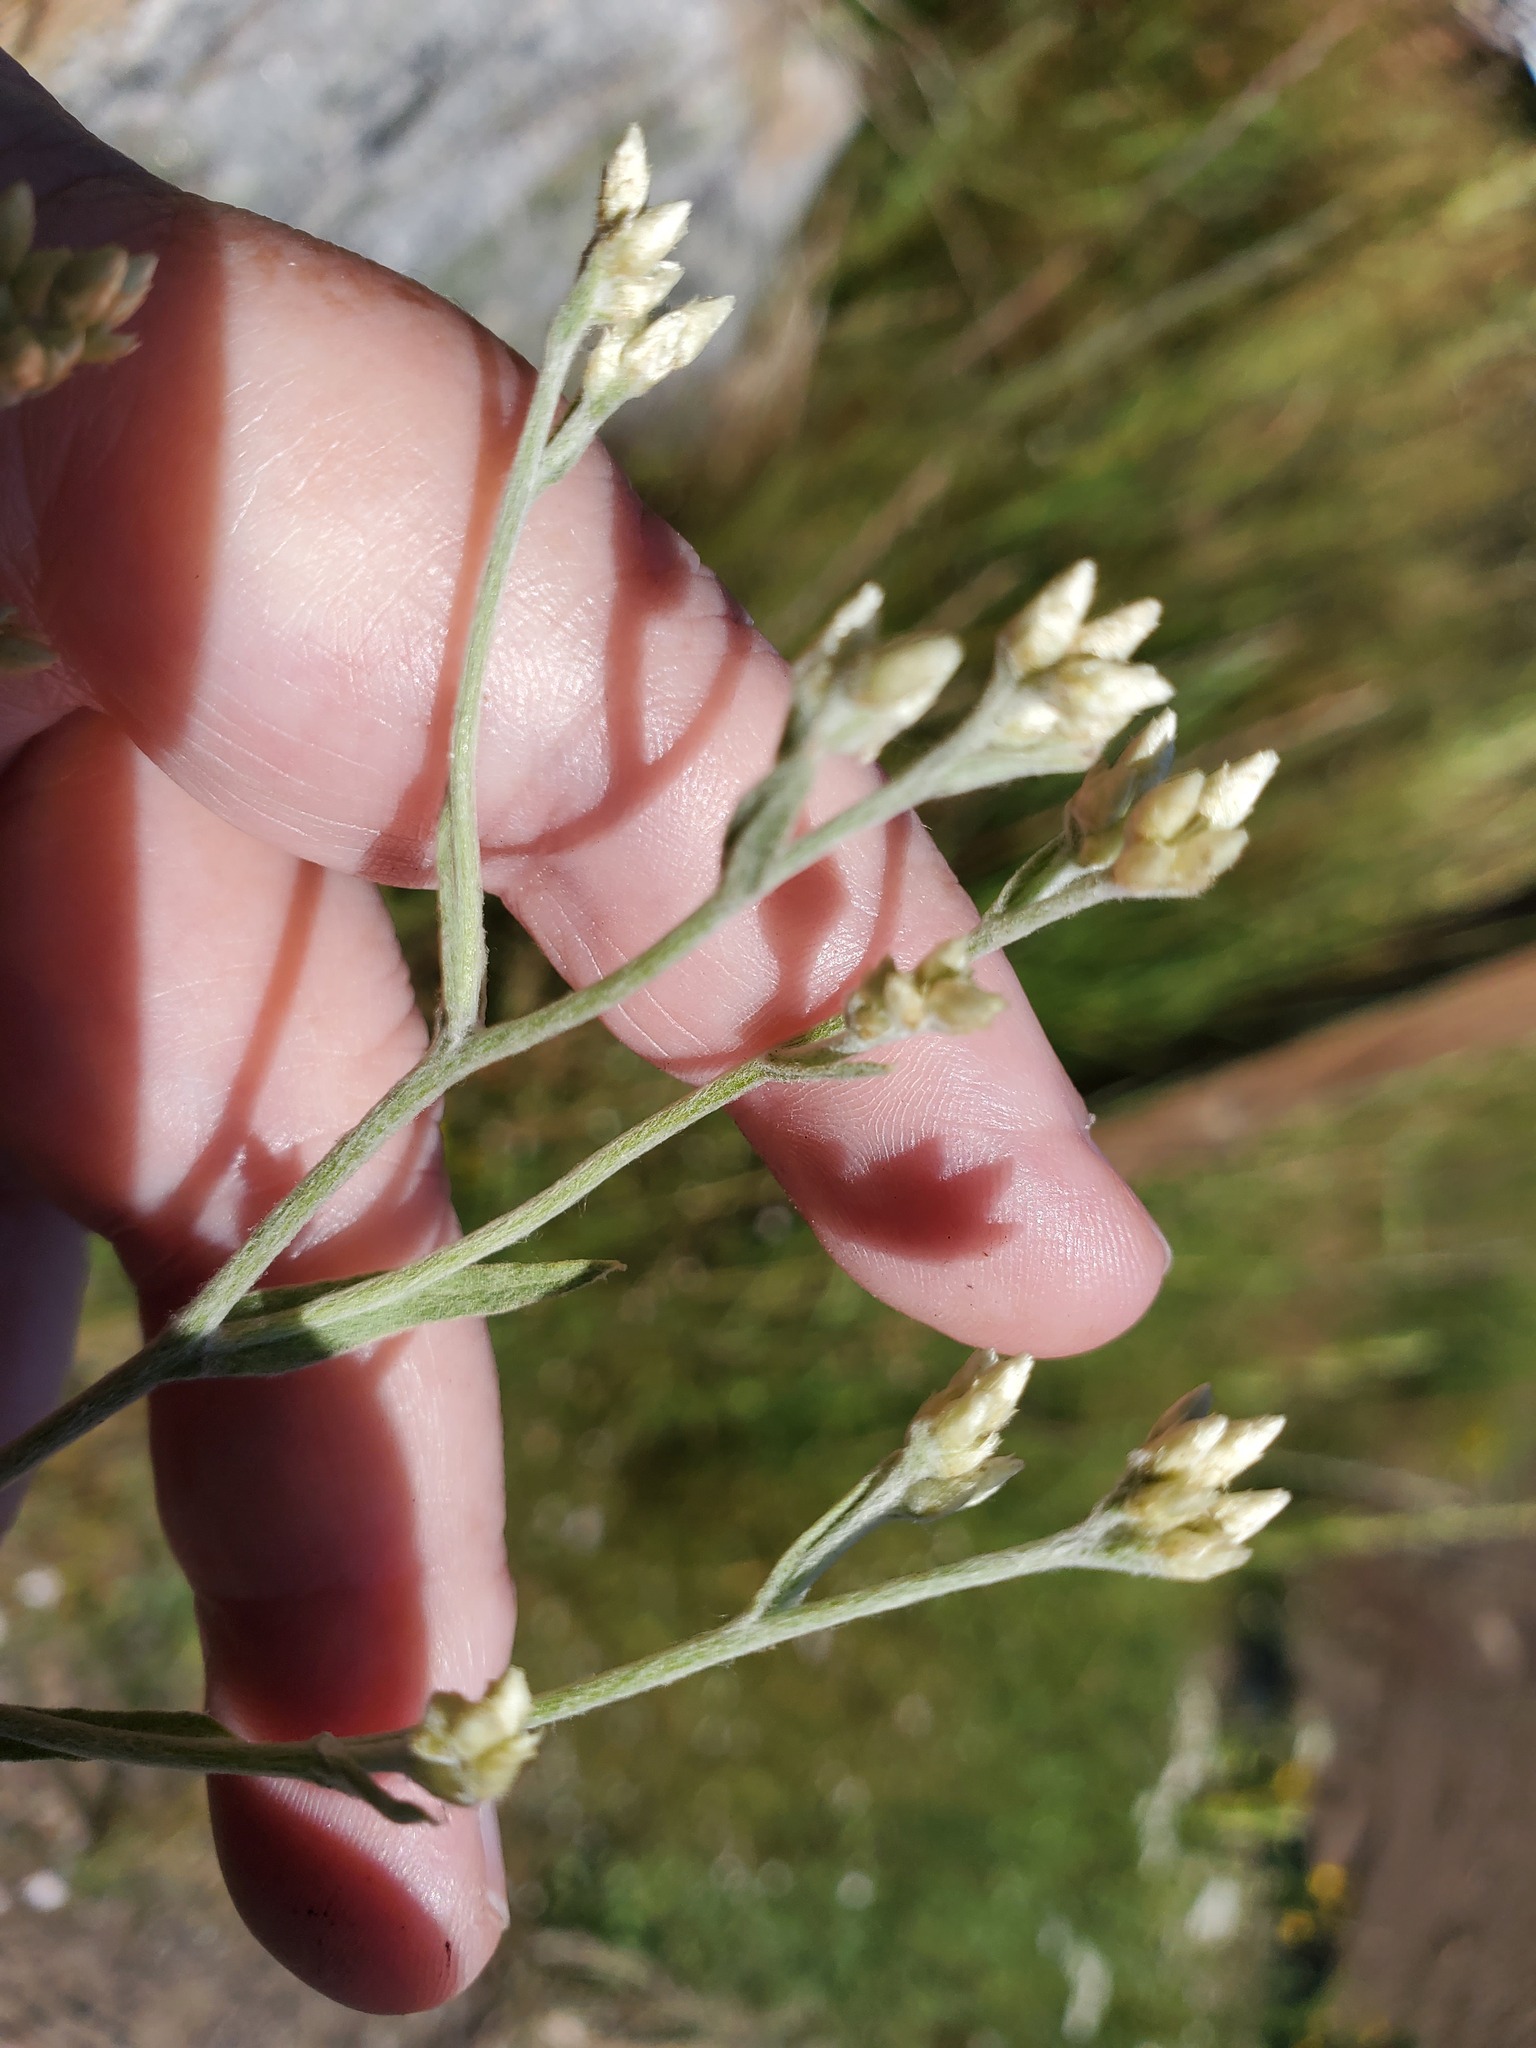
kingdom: Plantae
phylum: Tracheophyta
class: Magnoliopsida
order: Asterales
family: Asteraceae
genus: Pseudognaphalium
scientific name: Pseudognaphalium canescens
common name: Wright's rabbit-tobacco
